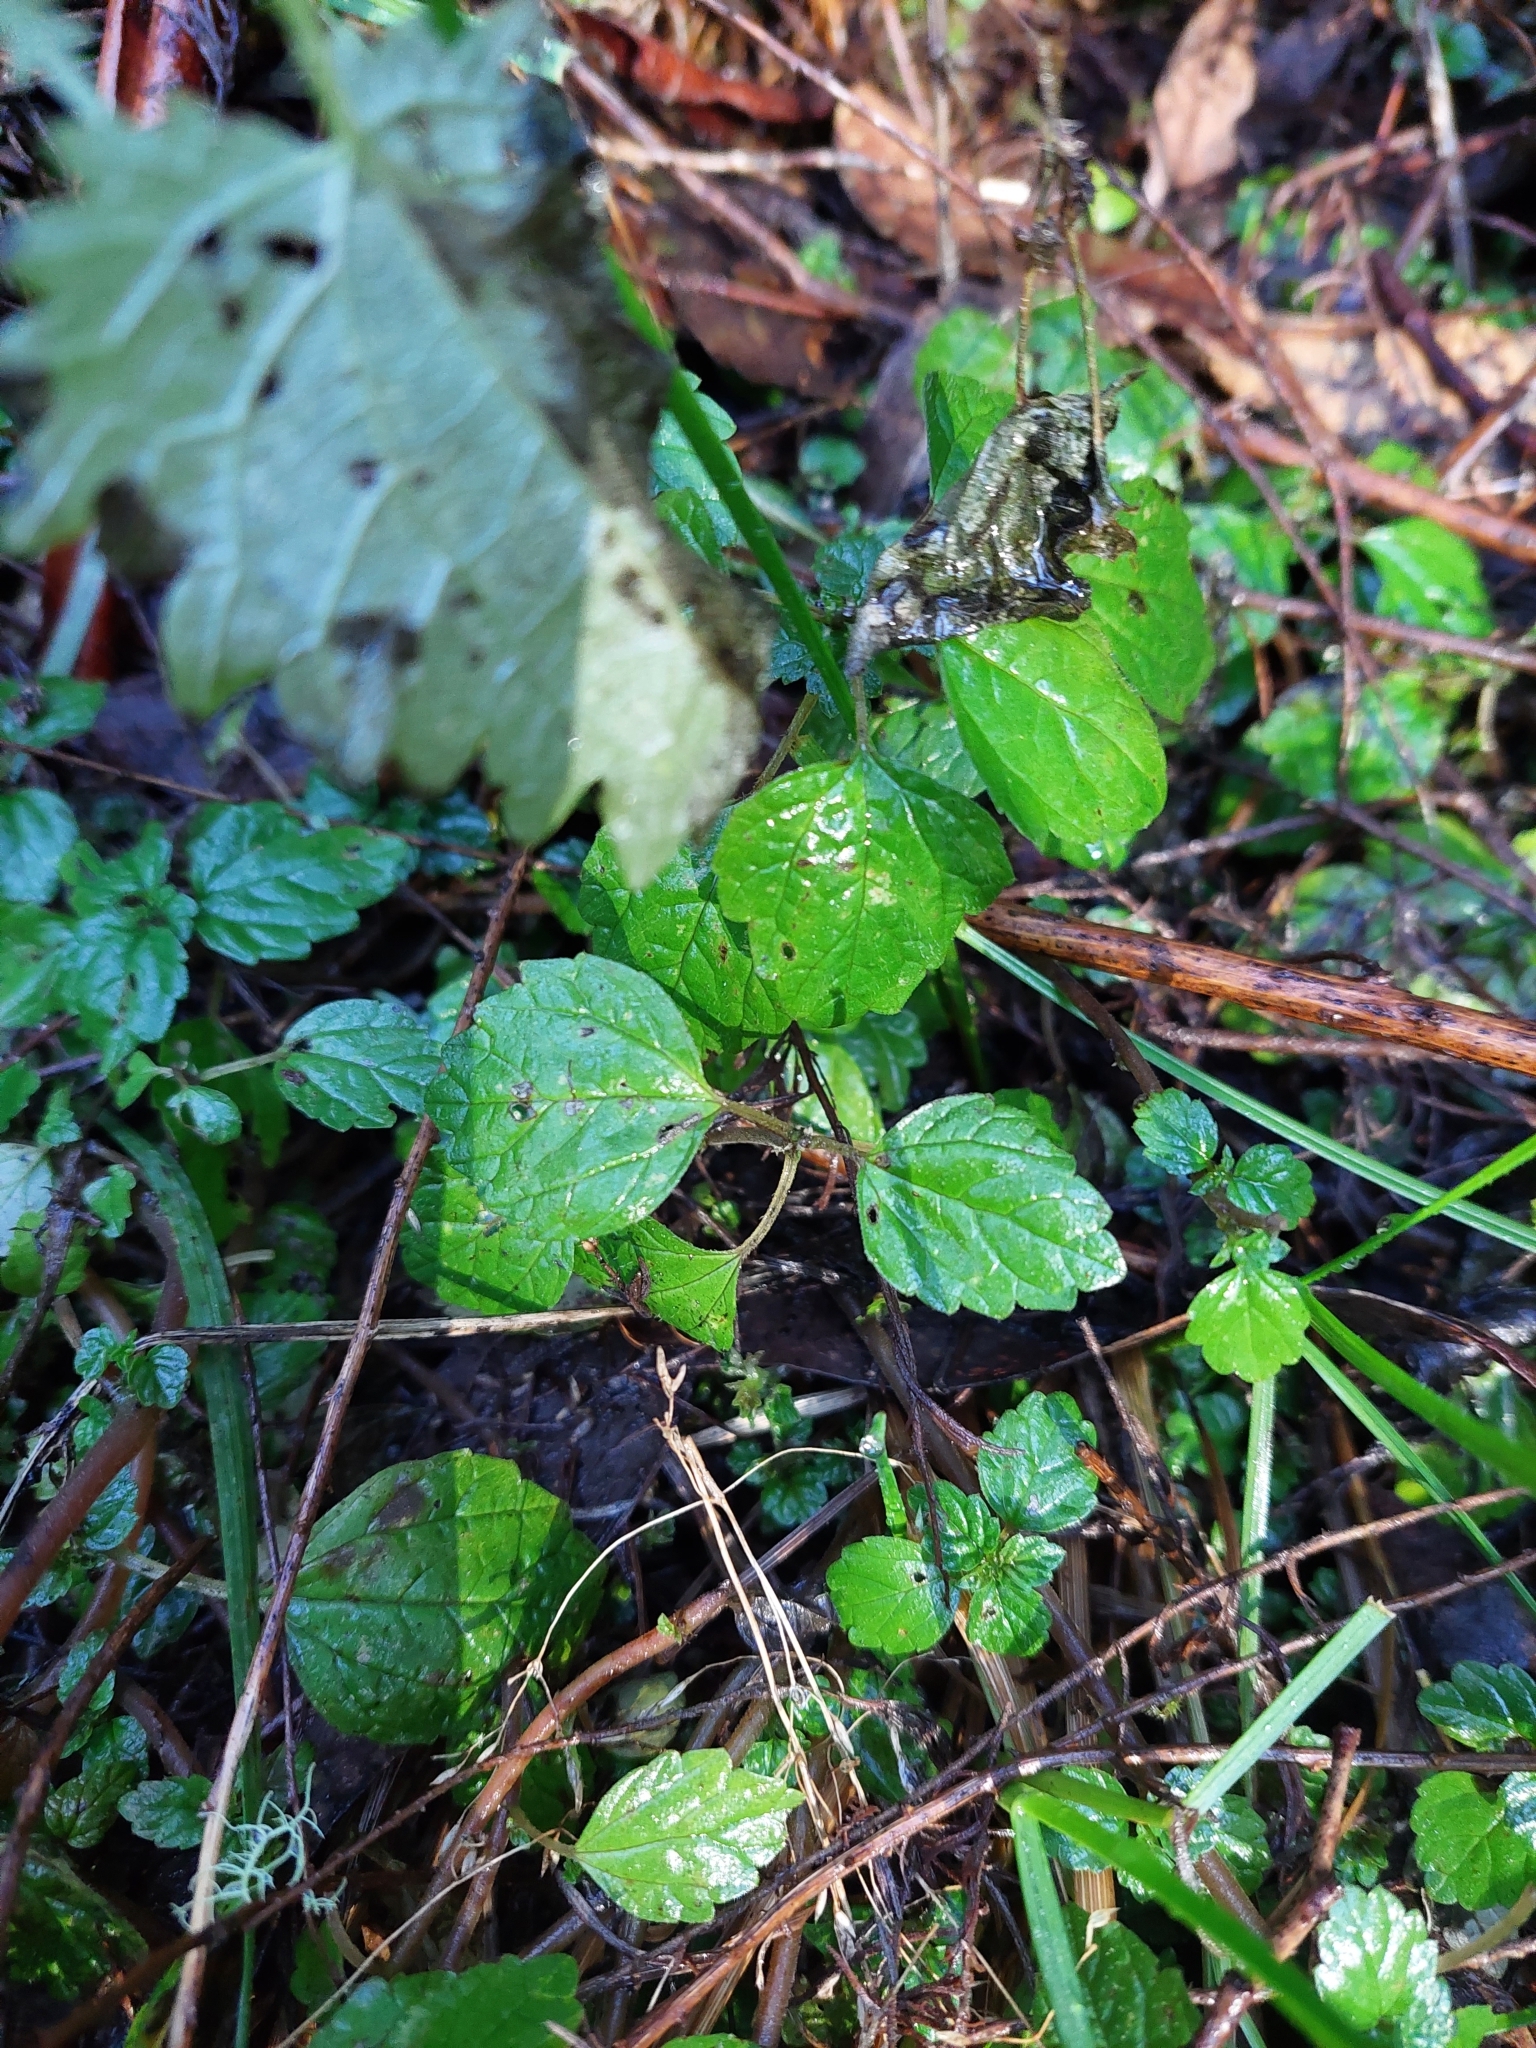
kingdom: Plantae
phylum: Tracheophyta
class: Magnoliopsida
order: Rosales
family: Urticaceae
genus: Australina
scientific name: Australina pusilla
